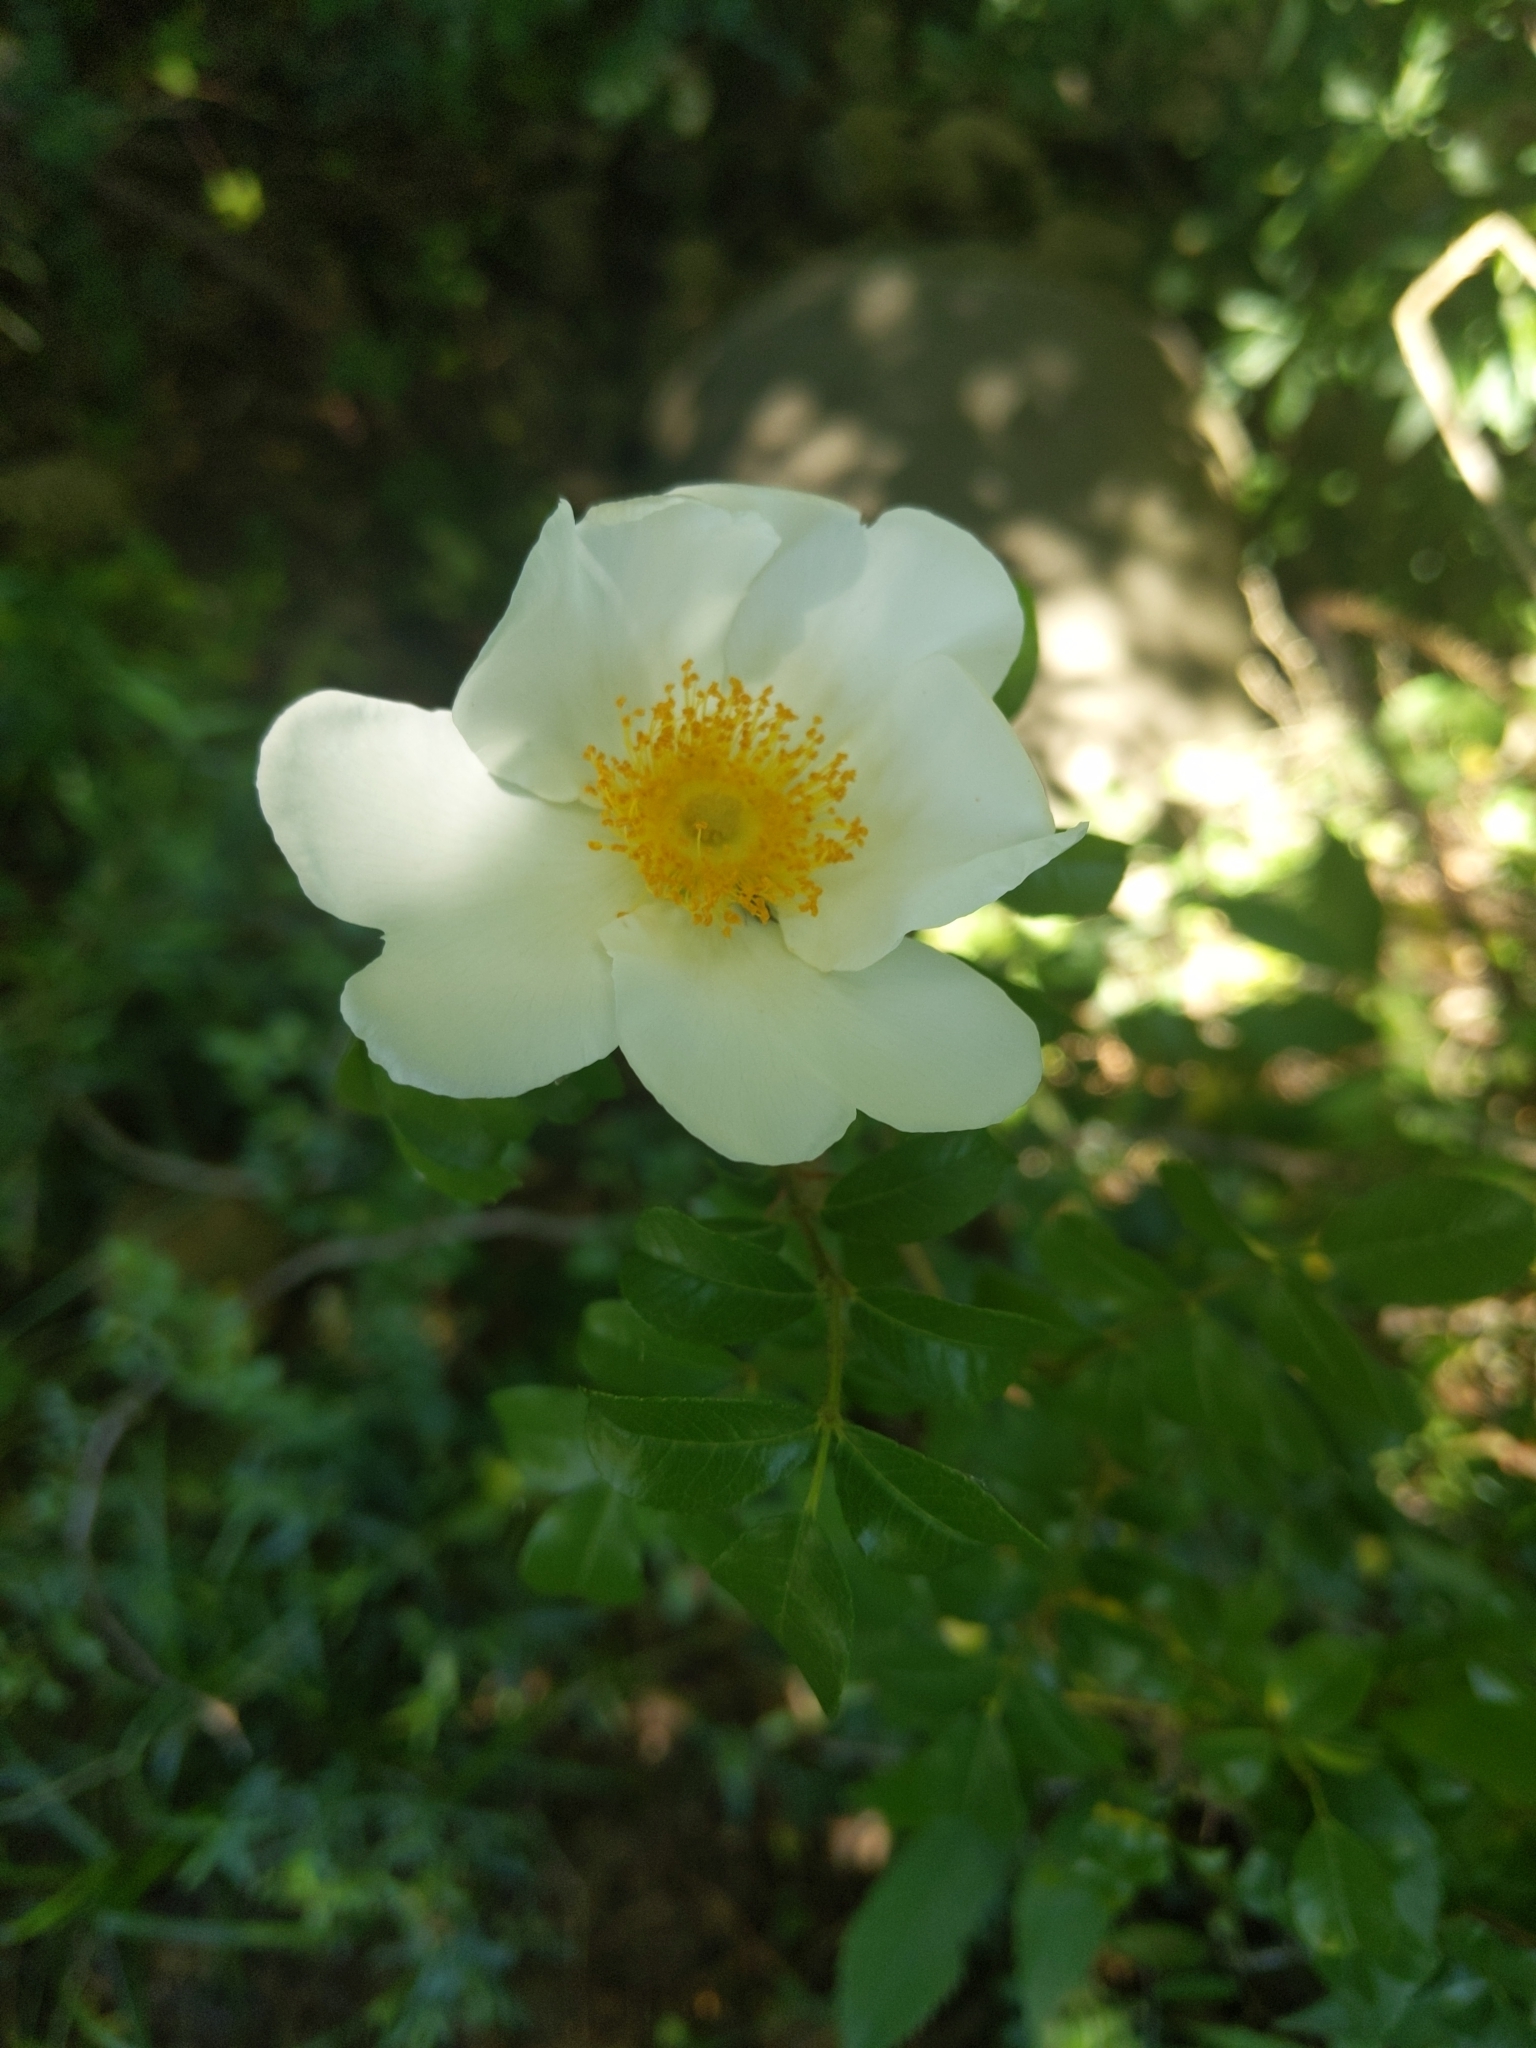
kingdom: Plantae
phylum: Tracheophyta
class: Magnoliopsida
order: Rosales
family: Rosaceae
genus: Rosa
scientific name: Rosa bracteata
